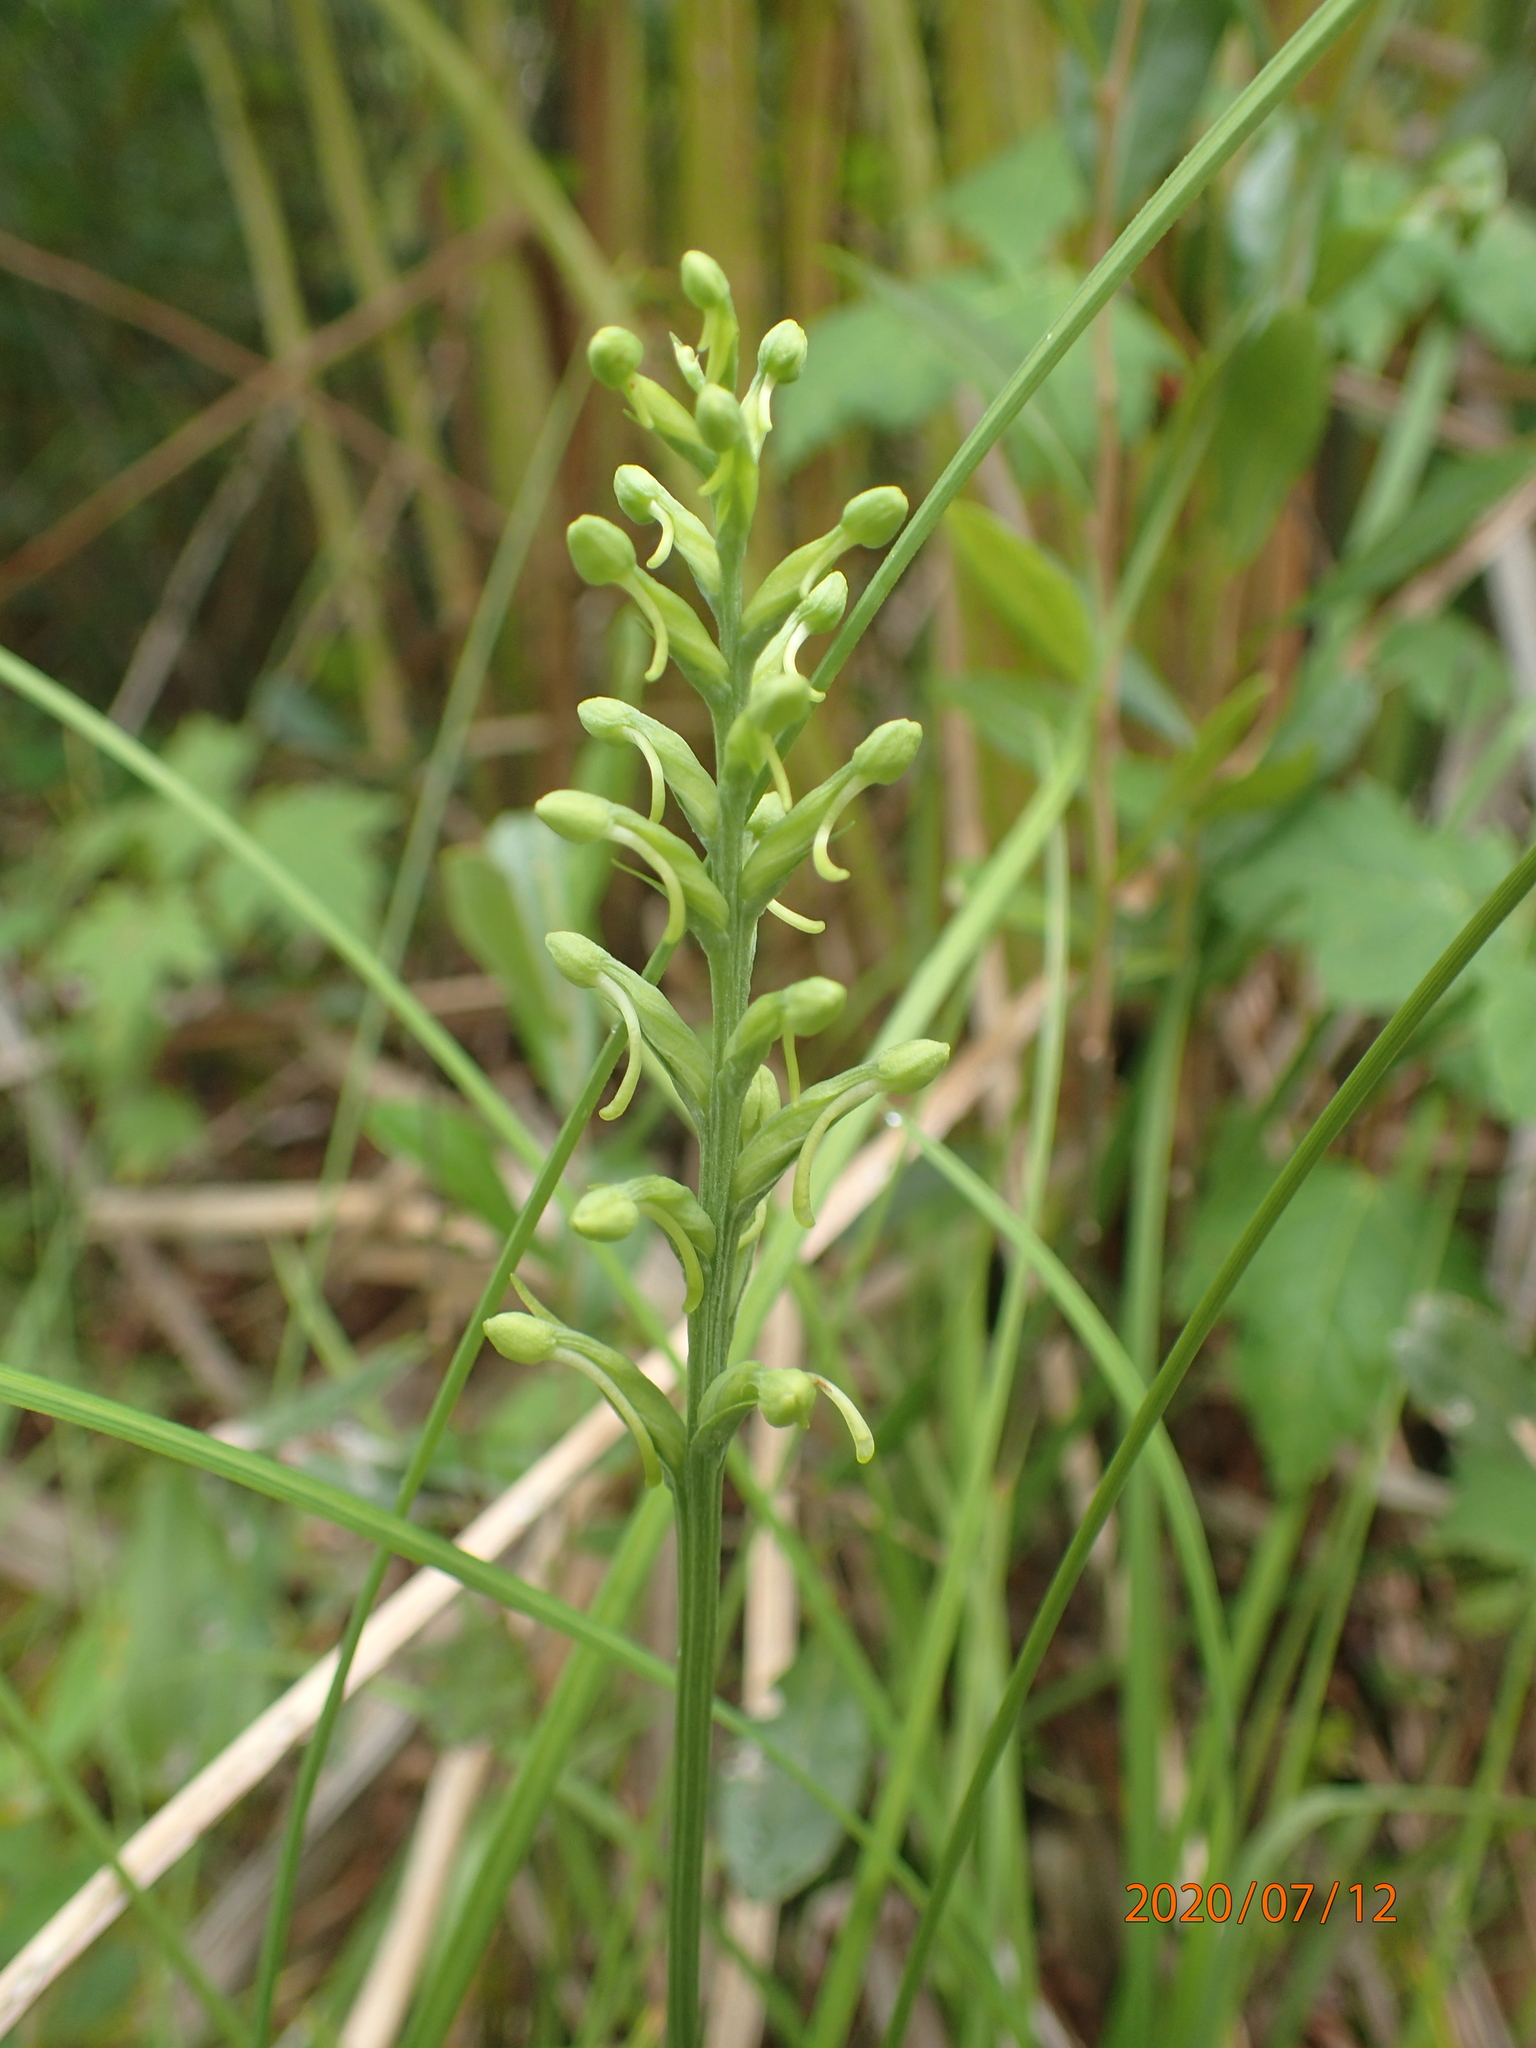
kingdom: Plantae
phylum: Tracheophyta
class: Liliopsida
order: Asparagales
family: Orchidaceae
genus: Platanthera
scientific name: Platanthera clavellata
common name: Club-spur orchid
